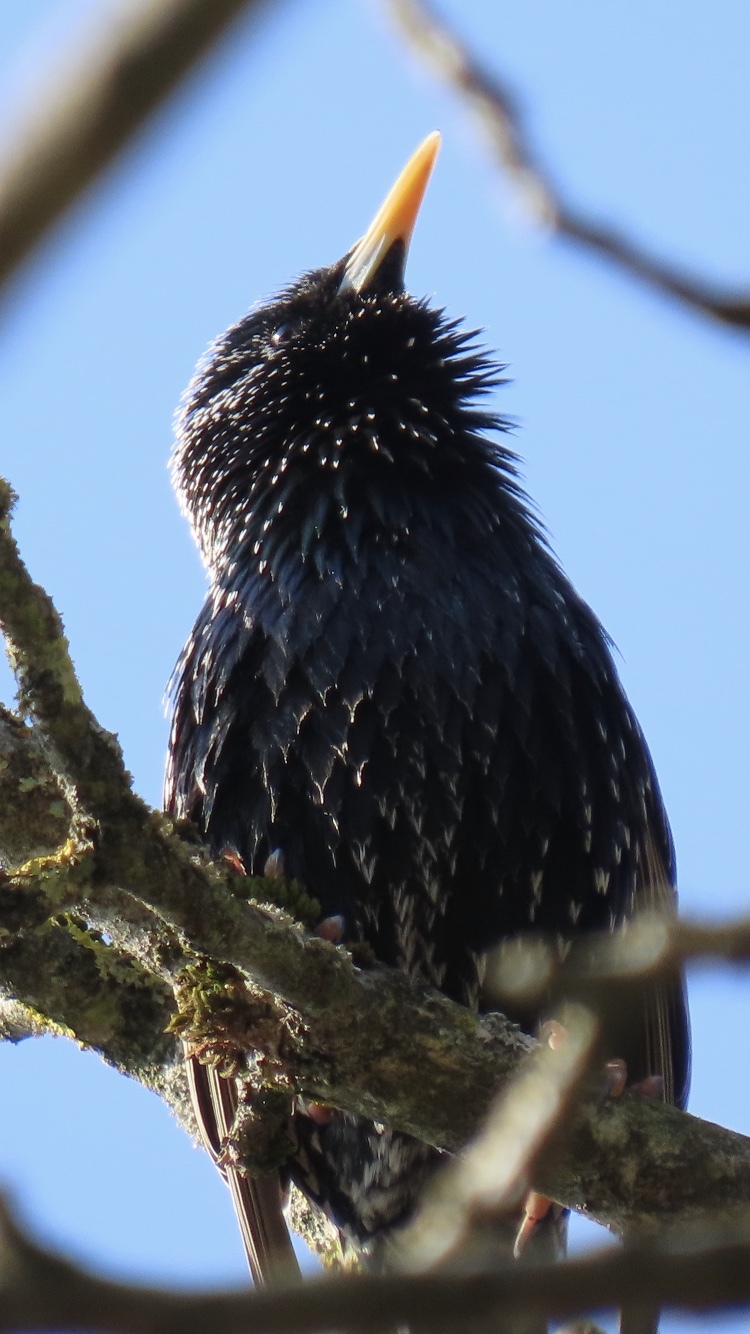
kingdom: Animalia
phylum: Chordata
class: Aves
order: Passeriformes
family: Sturnidae
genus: Sturnus
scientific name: Sturnus vulgaris
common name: Common starling
